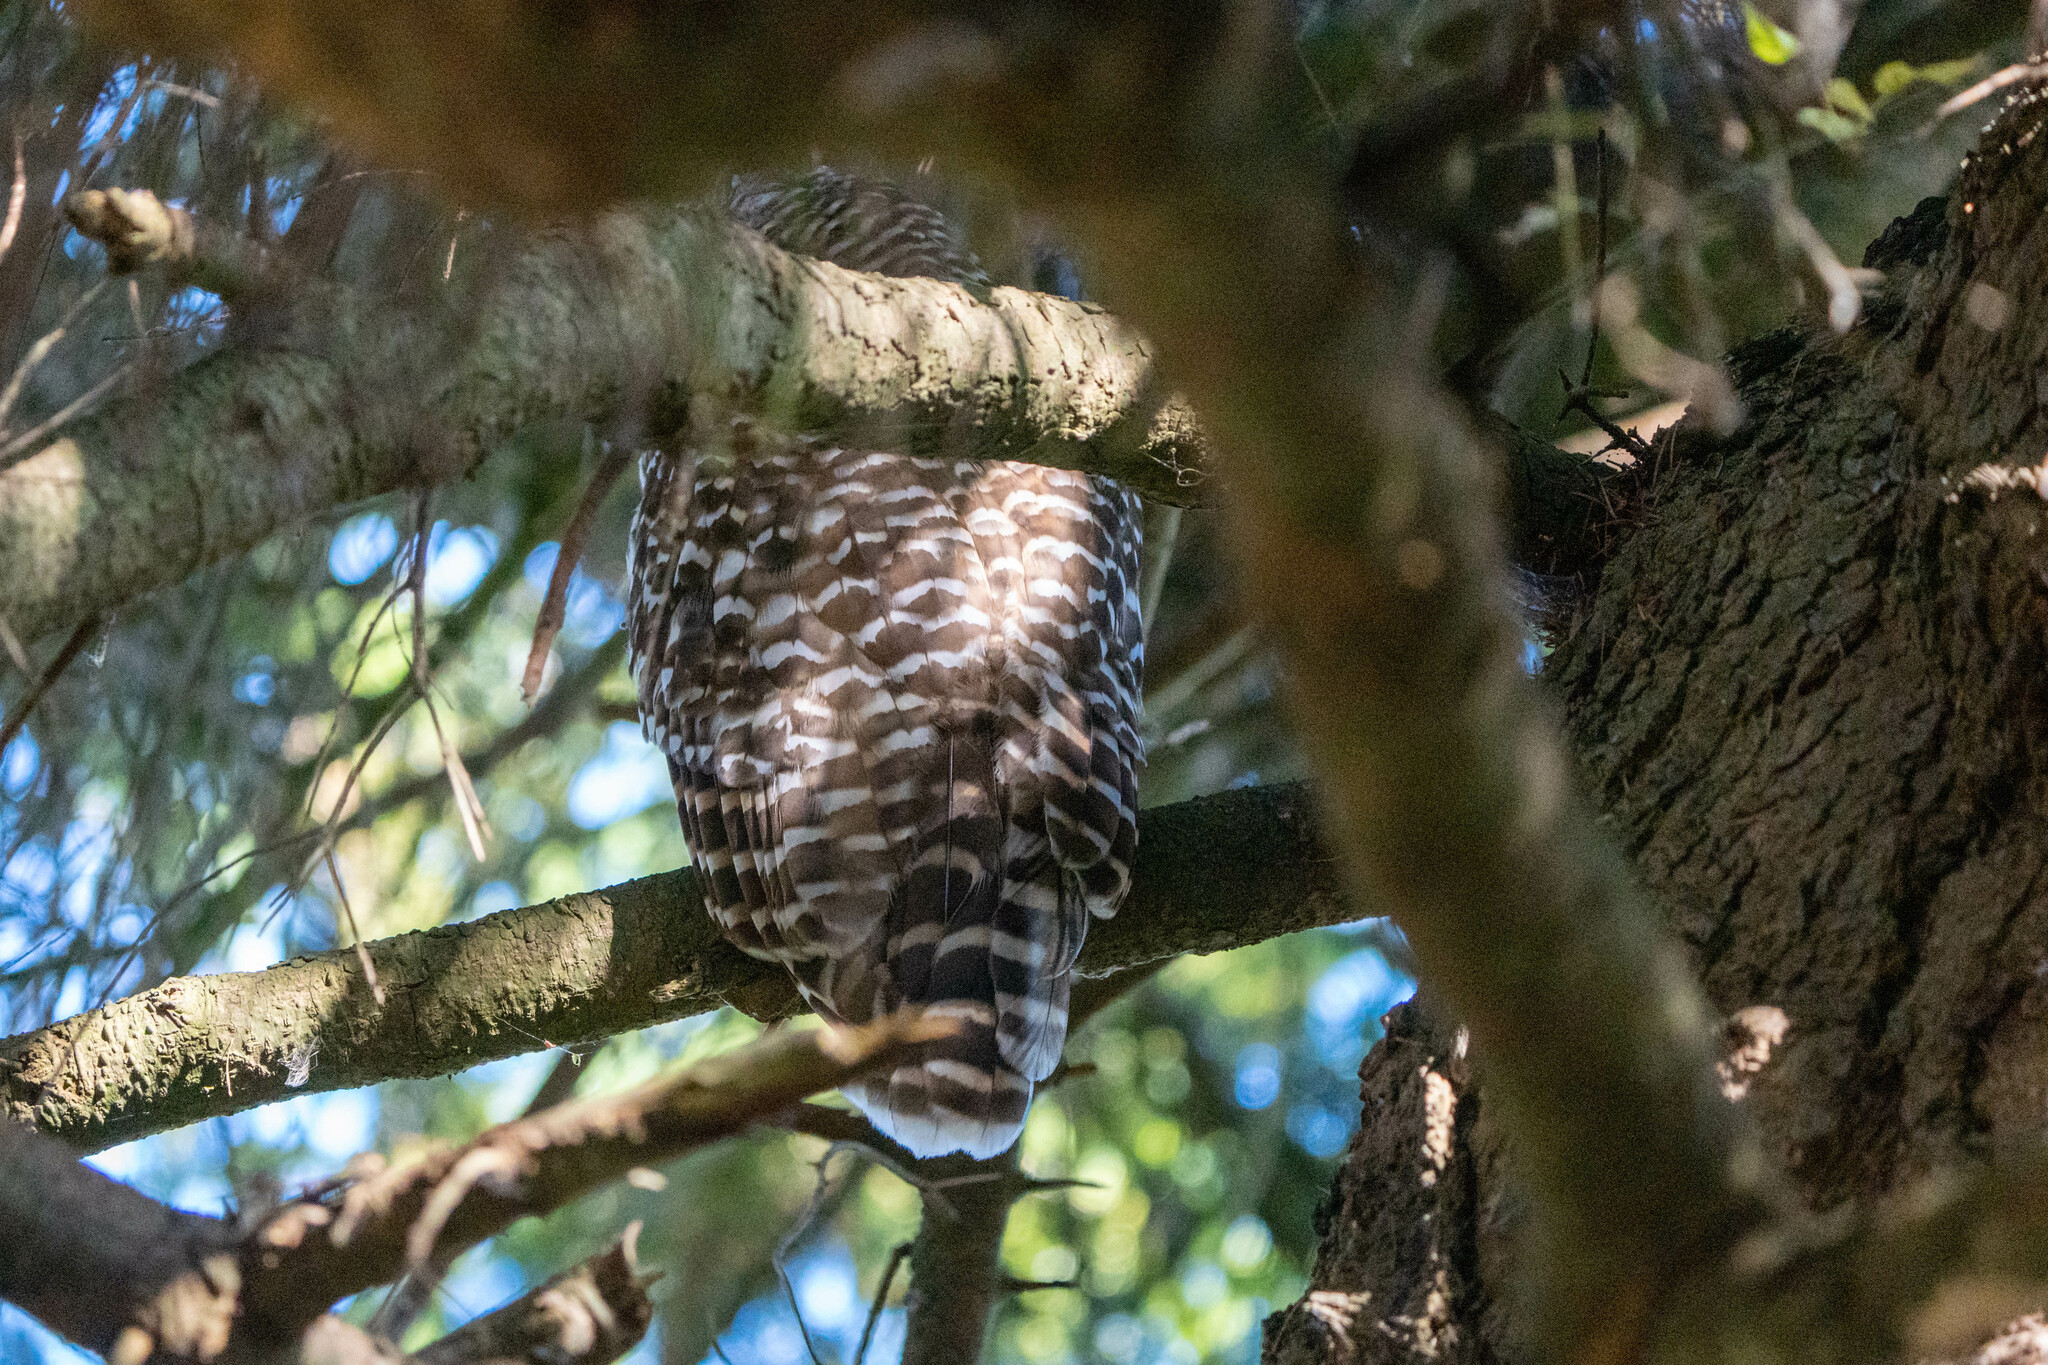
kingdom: Animalia
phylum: Chordata
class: Aves
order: Strigiformes
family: Strigidae
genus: Strix
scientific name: Strix varia
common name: Barred owl
